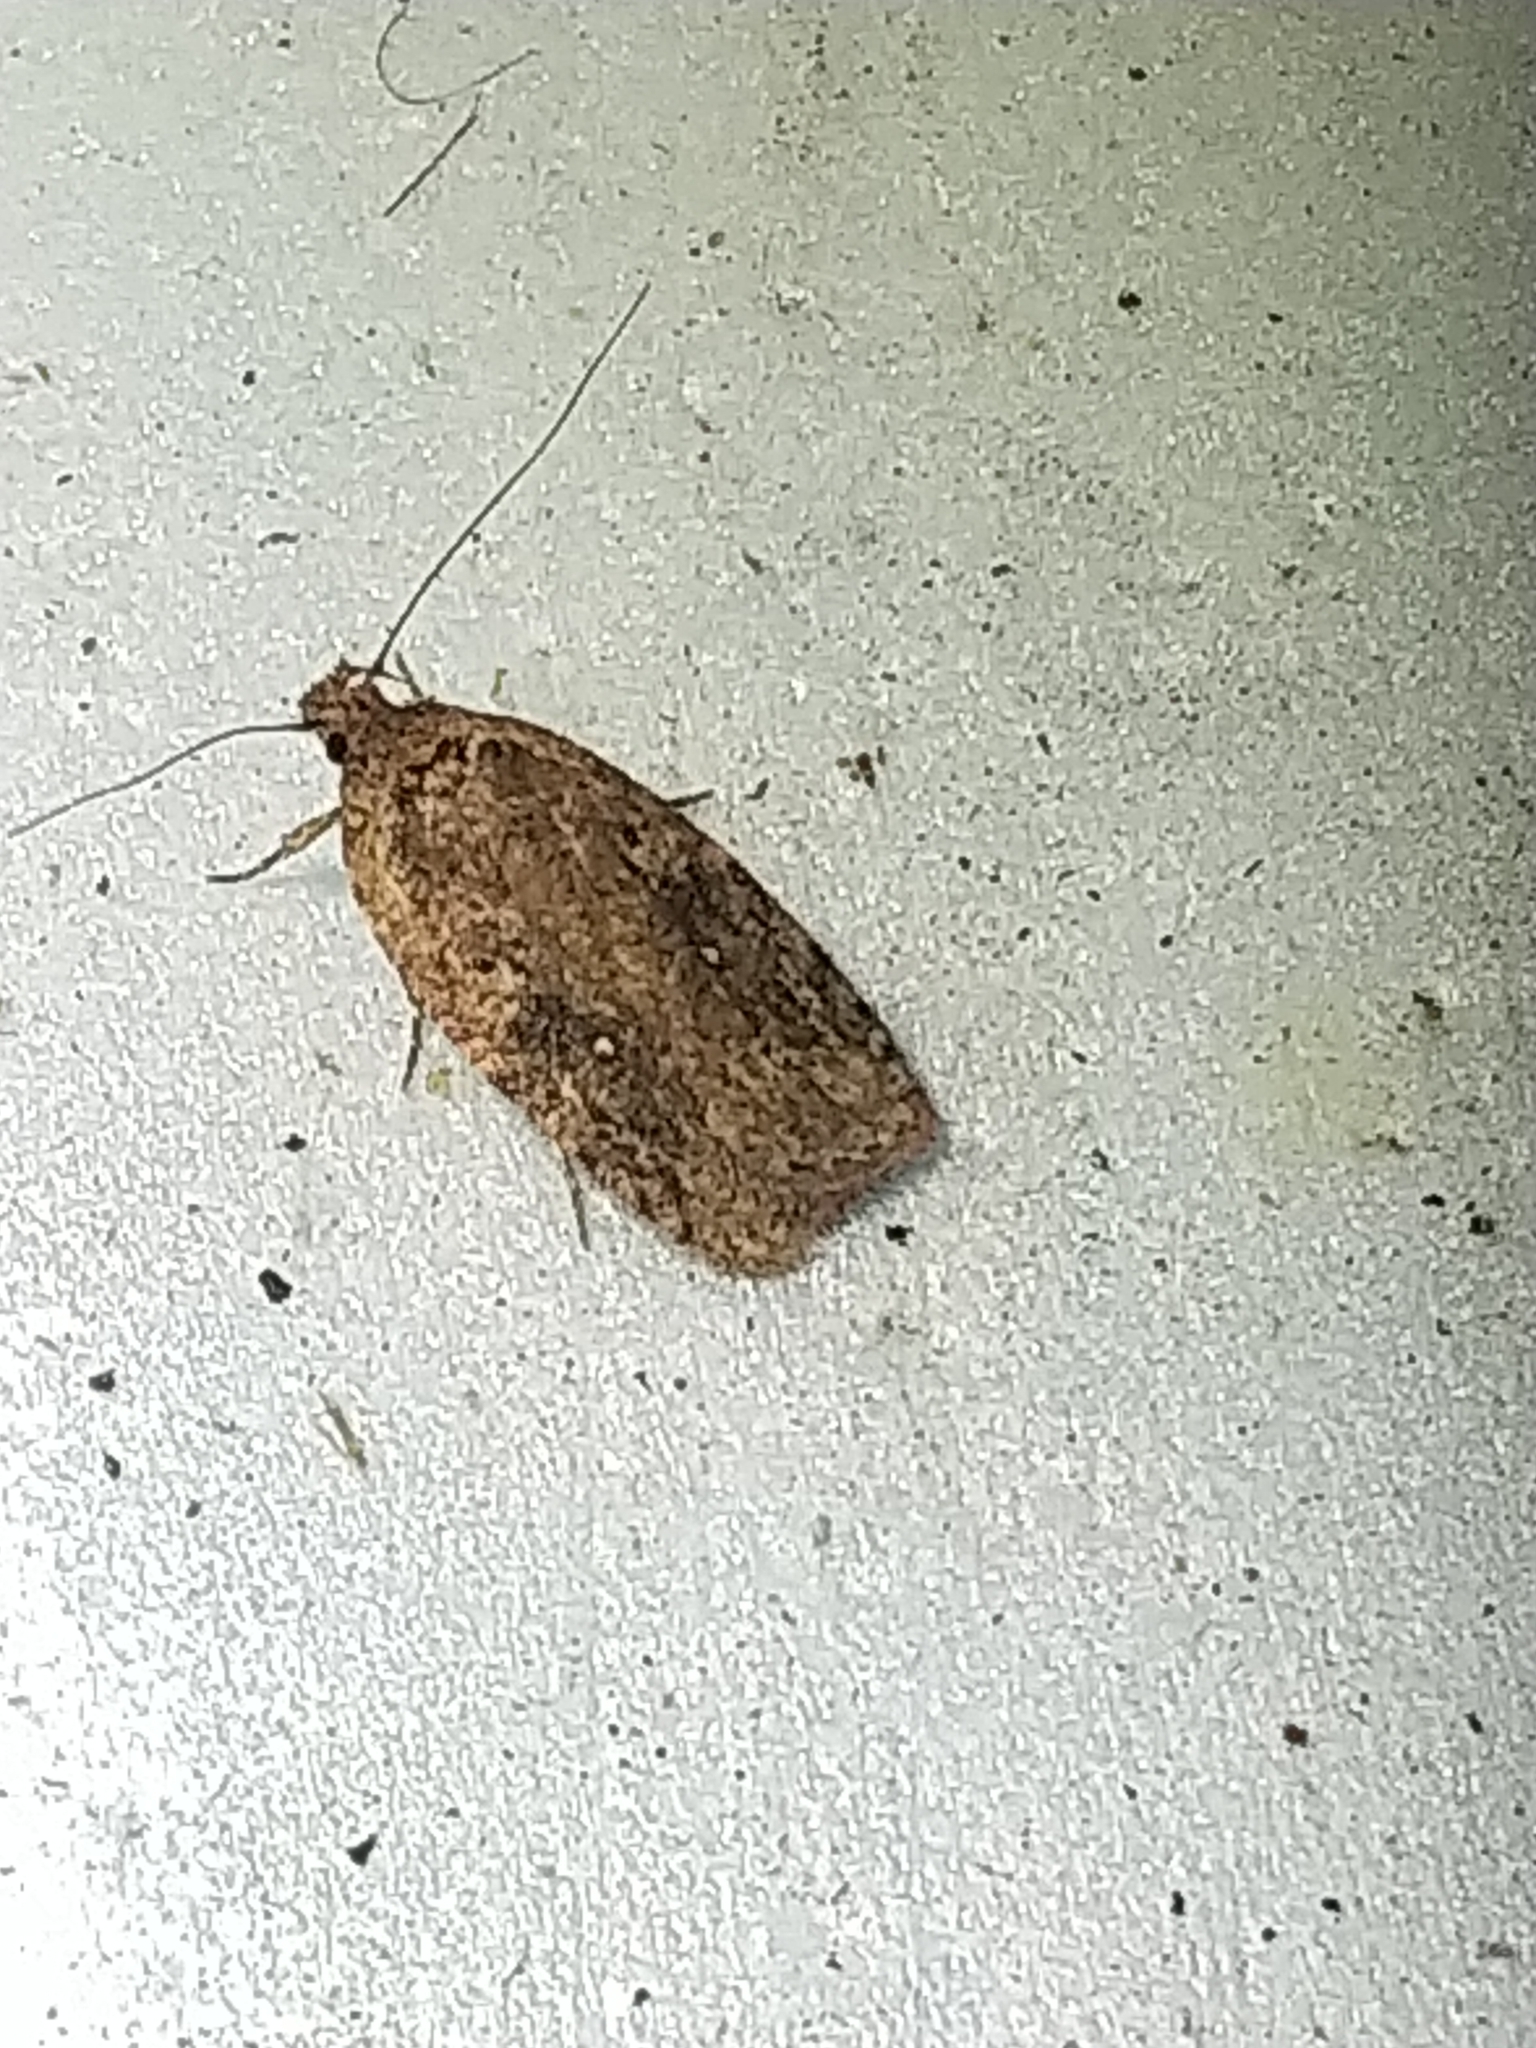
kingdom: Animalia
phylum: Arthropoda
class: Insecta
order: Lepidoptera
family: Depressariidae
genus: Agonopterix
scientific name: Agonopterix pulvipennella
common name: Goldenrod leafffolder
